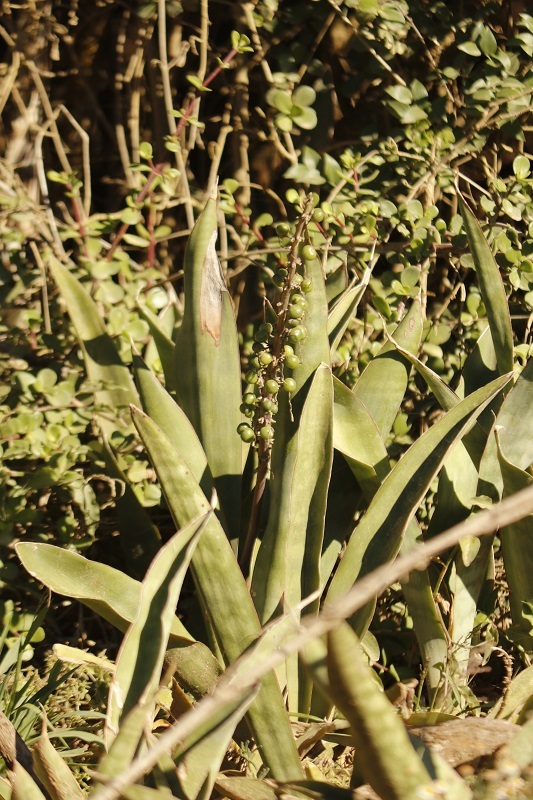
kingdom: Plantae
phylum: Tracheophyta
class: Liliopsida
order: Asparagales
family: Asparagaceae
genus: Dracaena
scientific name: Dracaena hyacinthoides
